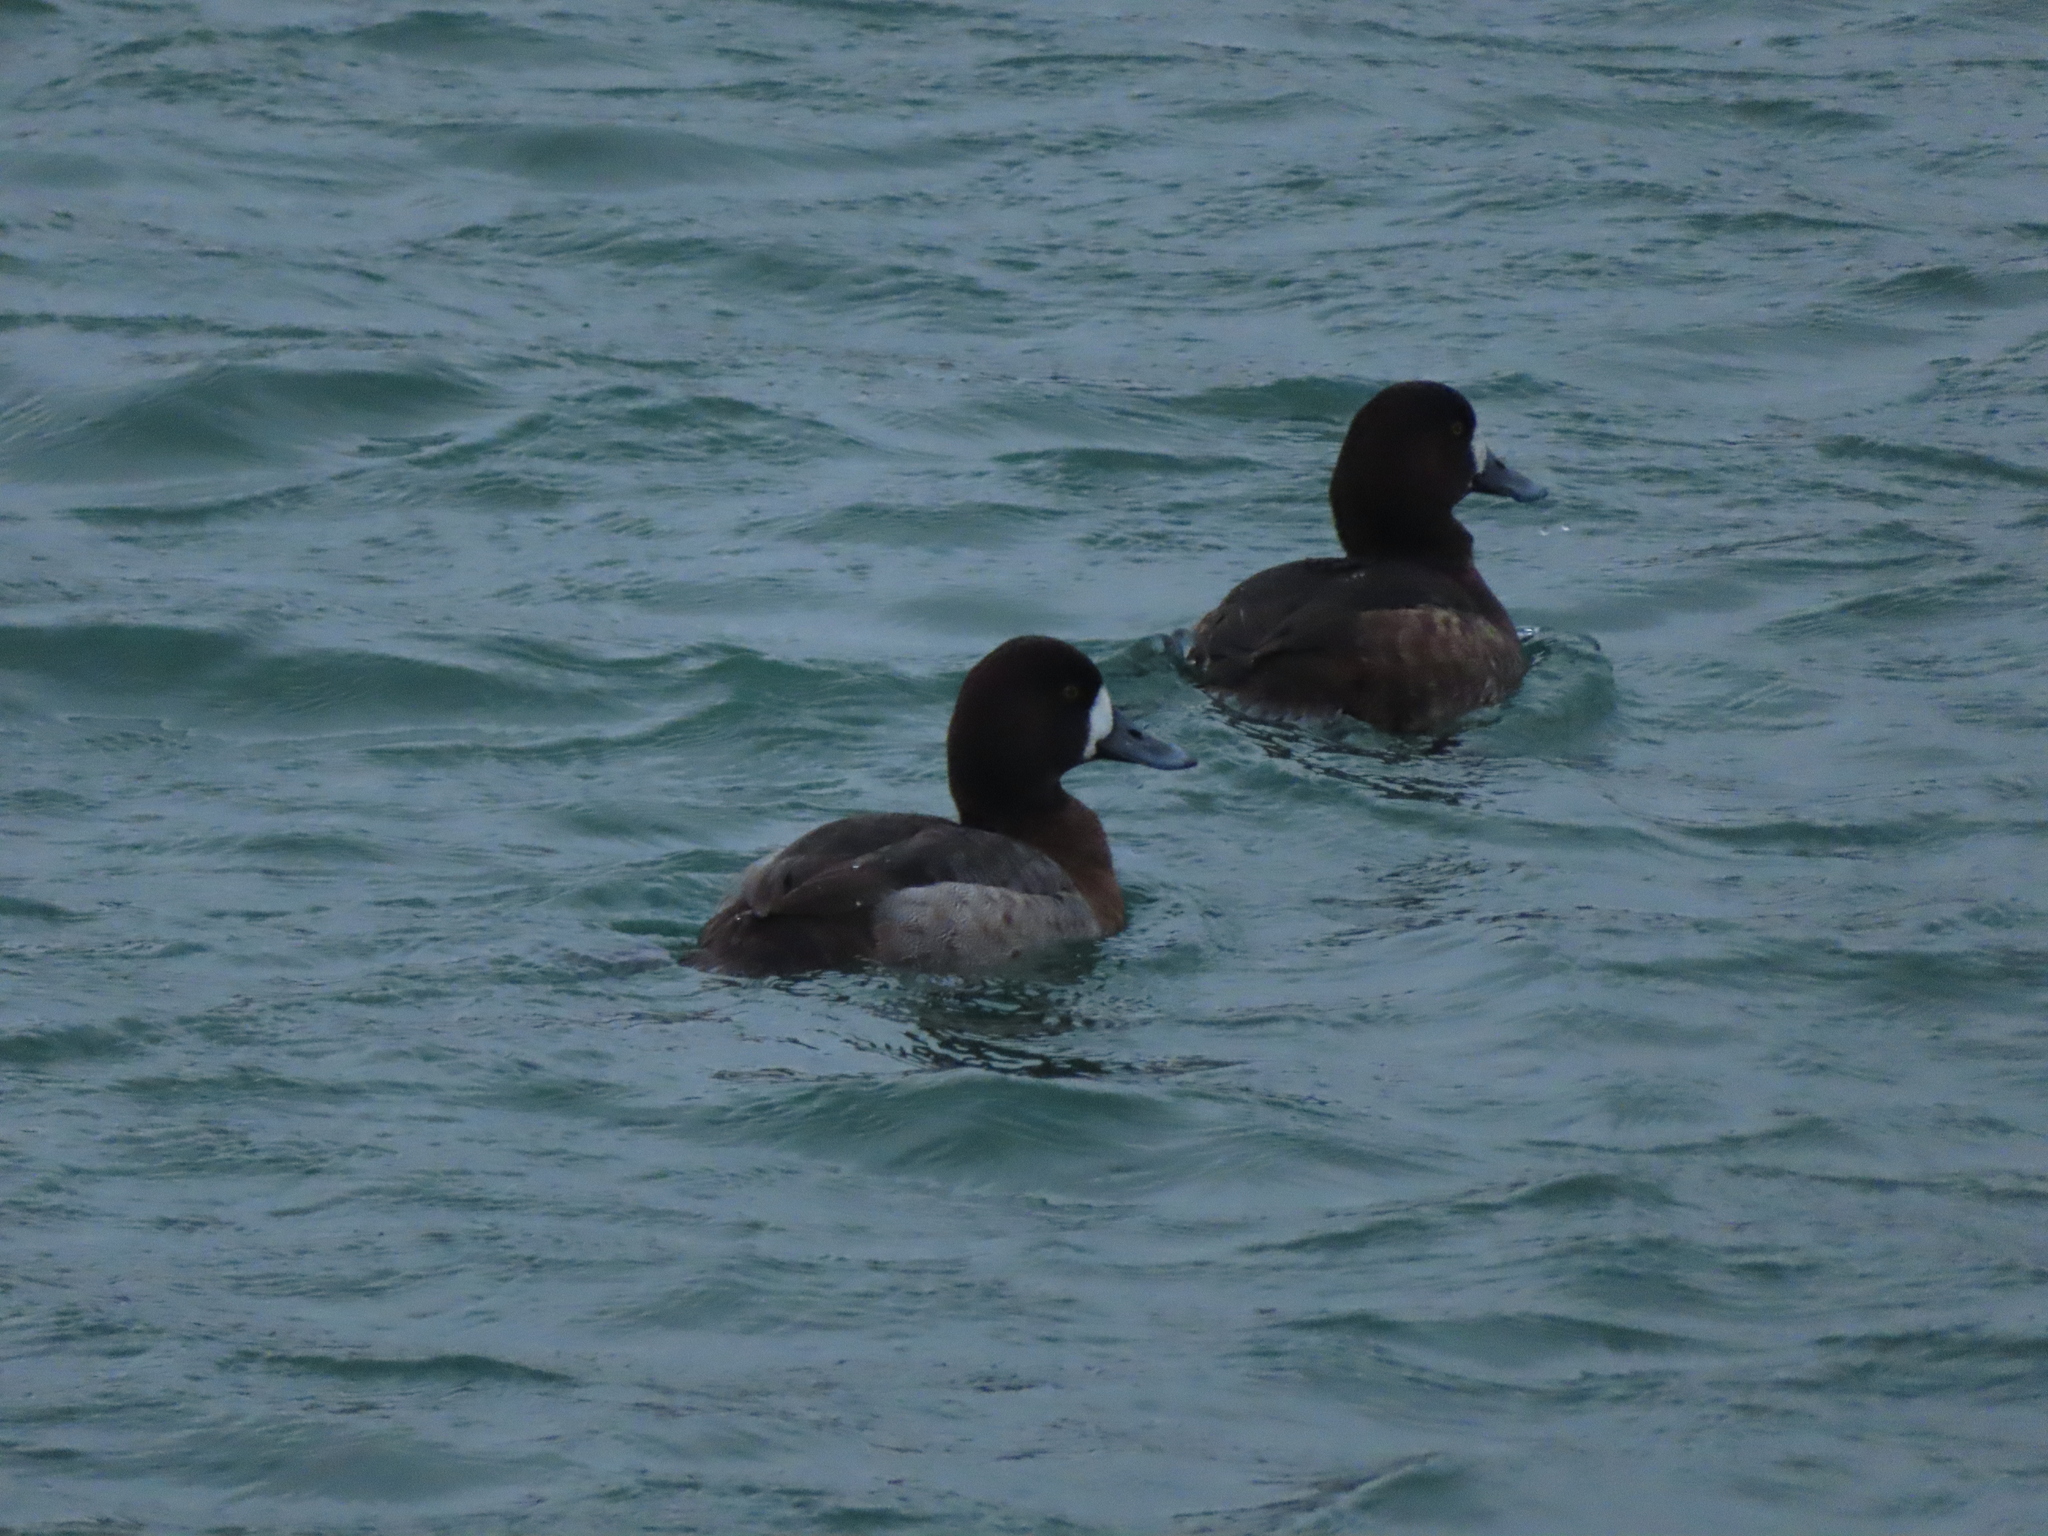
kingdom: Animalia
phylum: Chordata
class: Aves
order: Anseriformes
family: Anatidae
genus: Aythya
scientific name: Aythya marila
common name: Greater scaup
